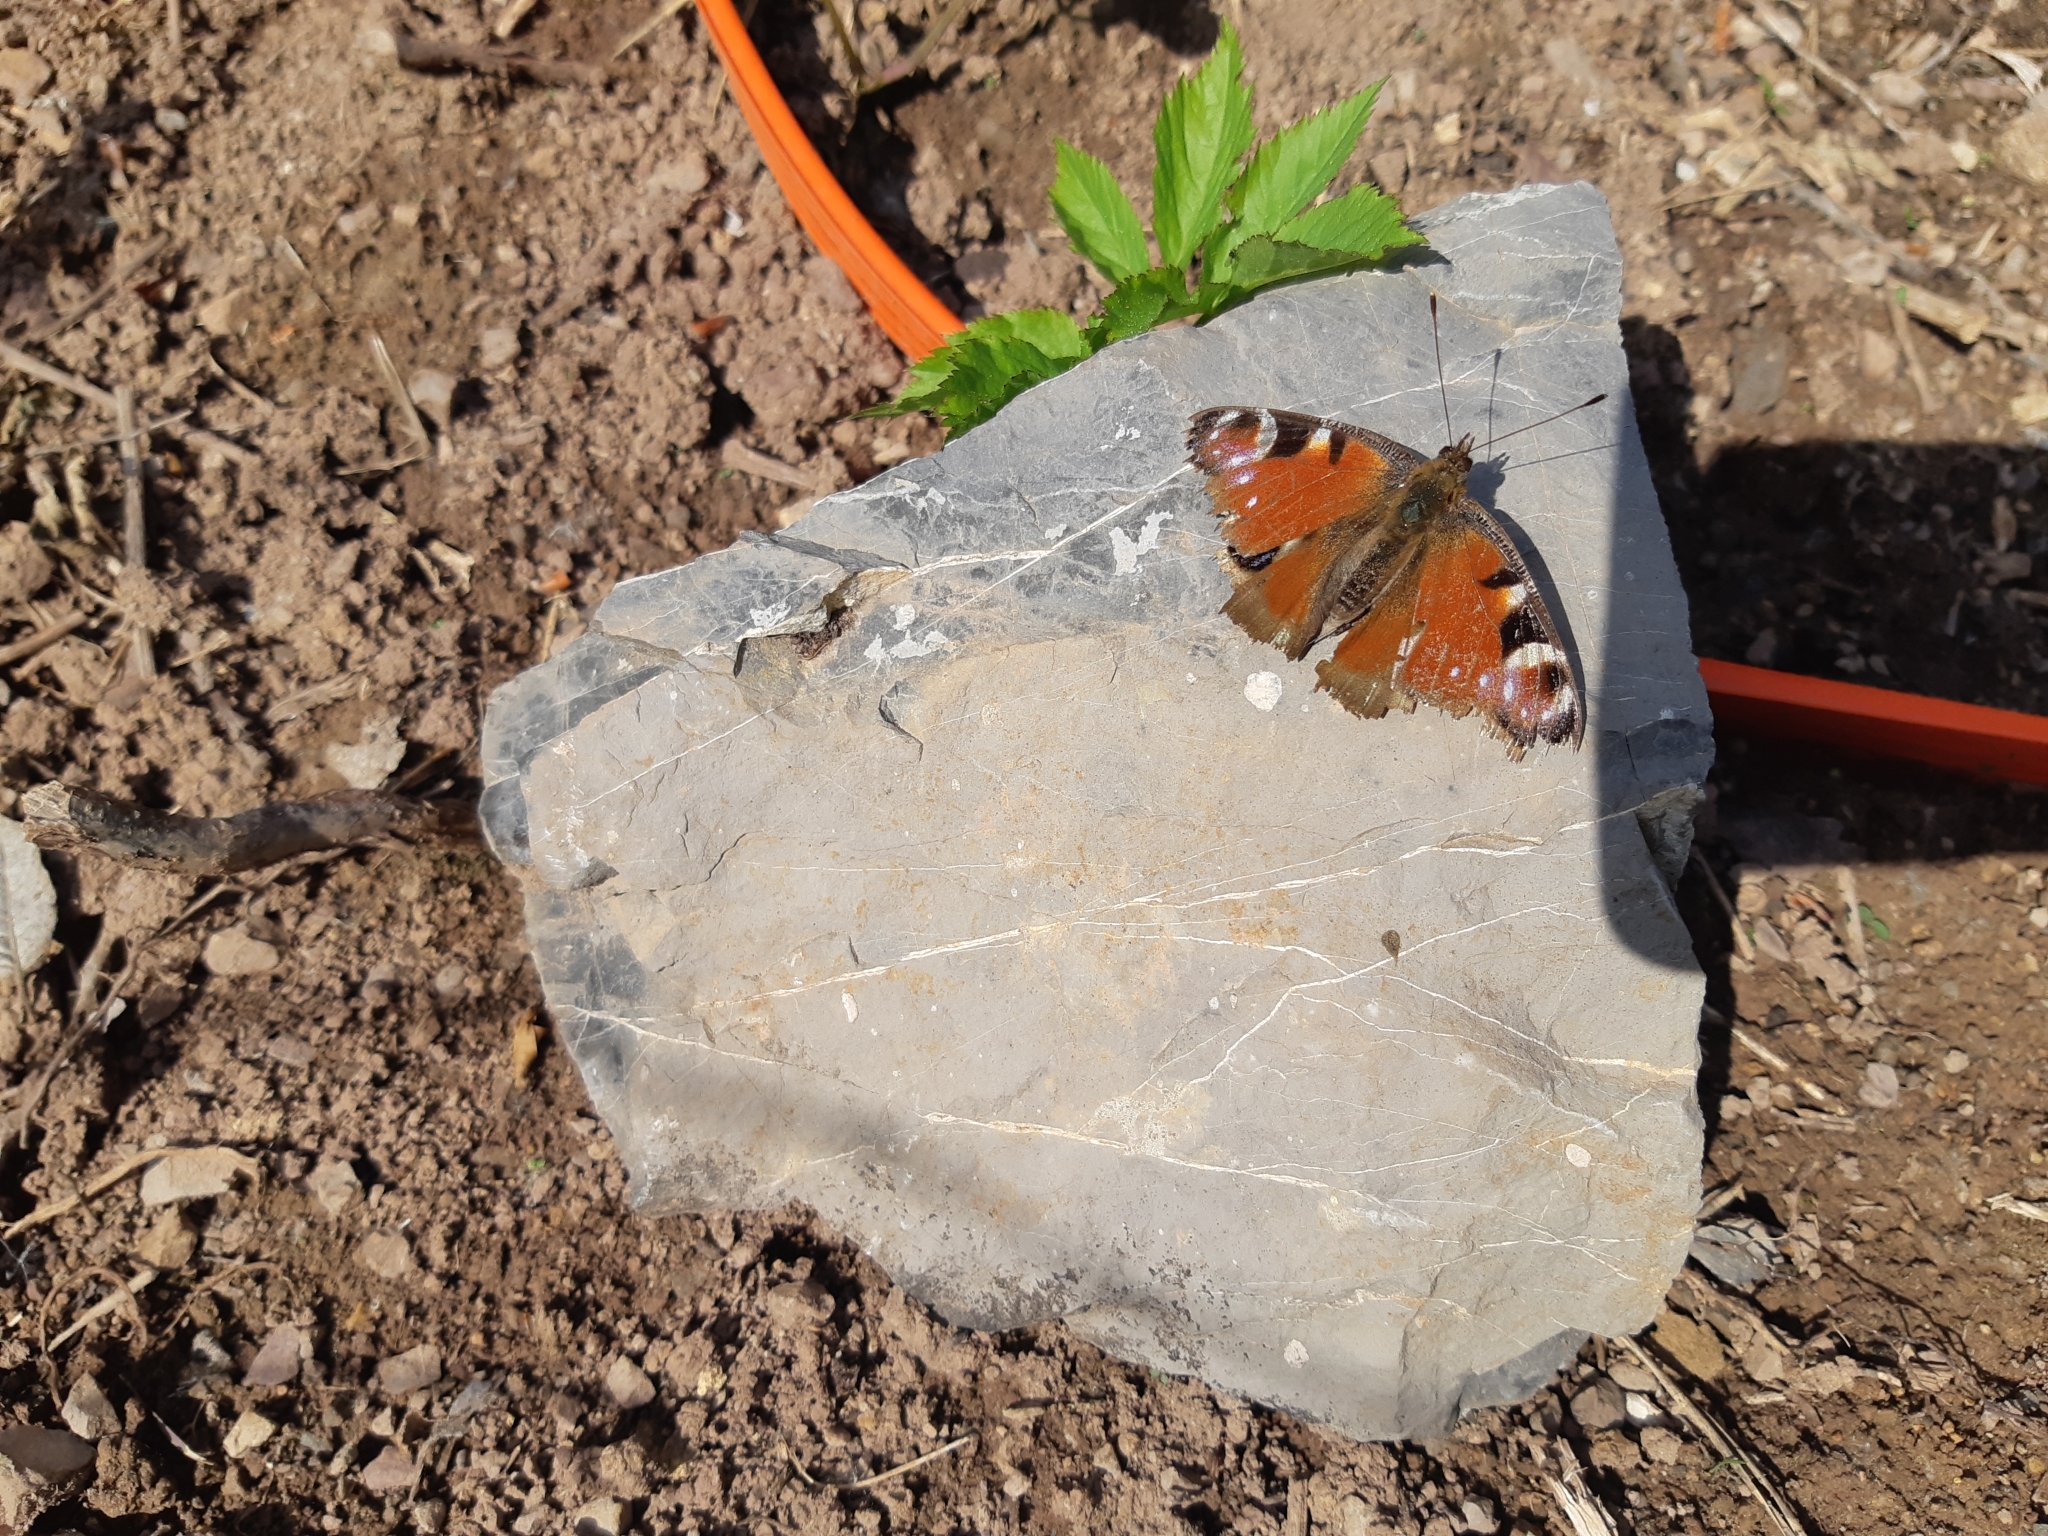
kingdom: Animalia
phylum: Arthropoda
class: Insecta
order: Lepidoptera
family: Nymphalidae
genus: Aglais
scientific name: Aglais io
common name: Peacock
